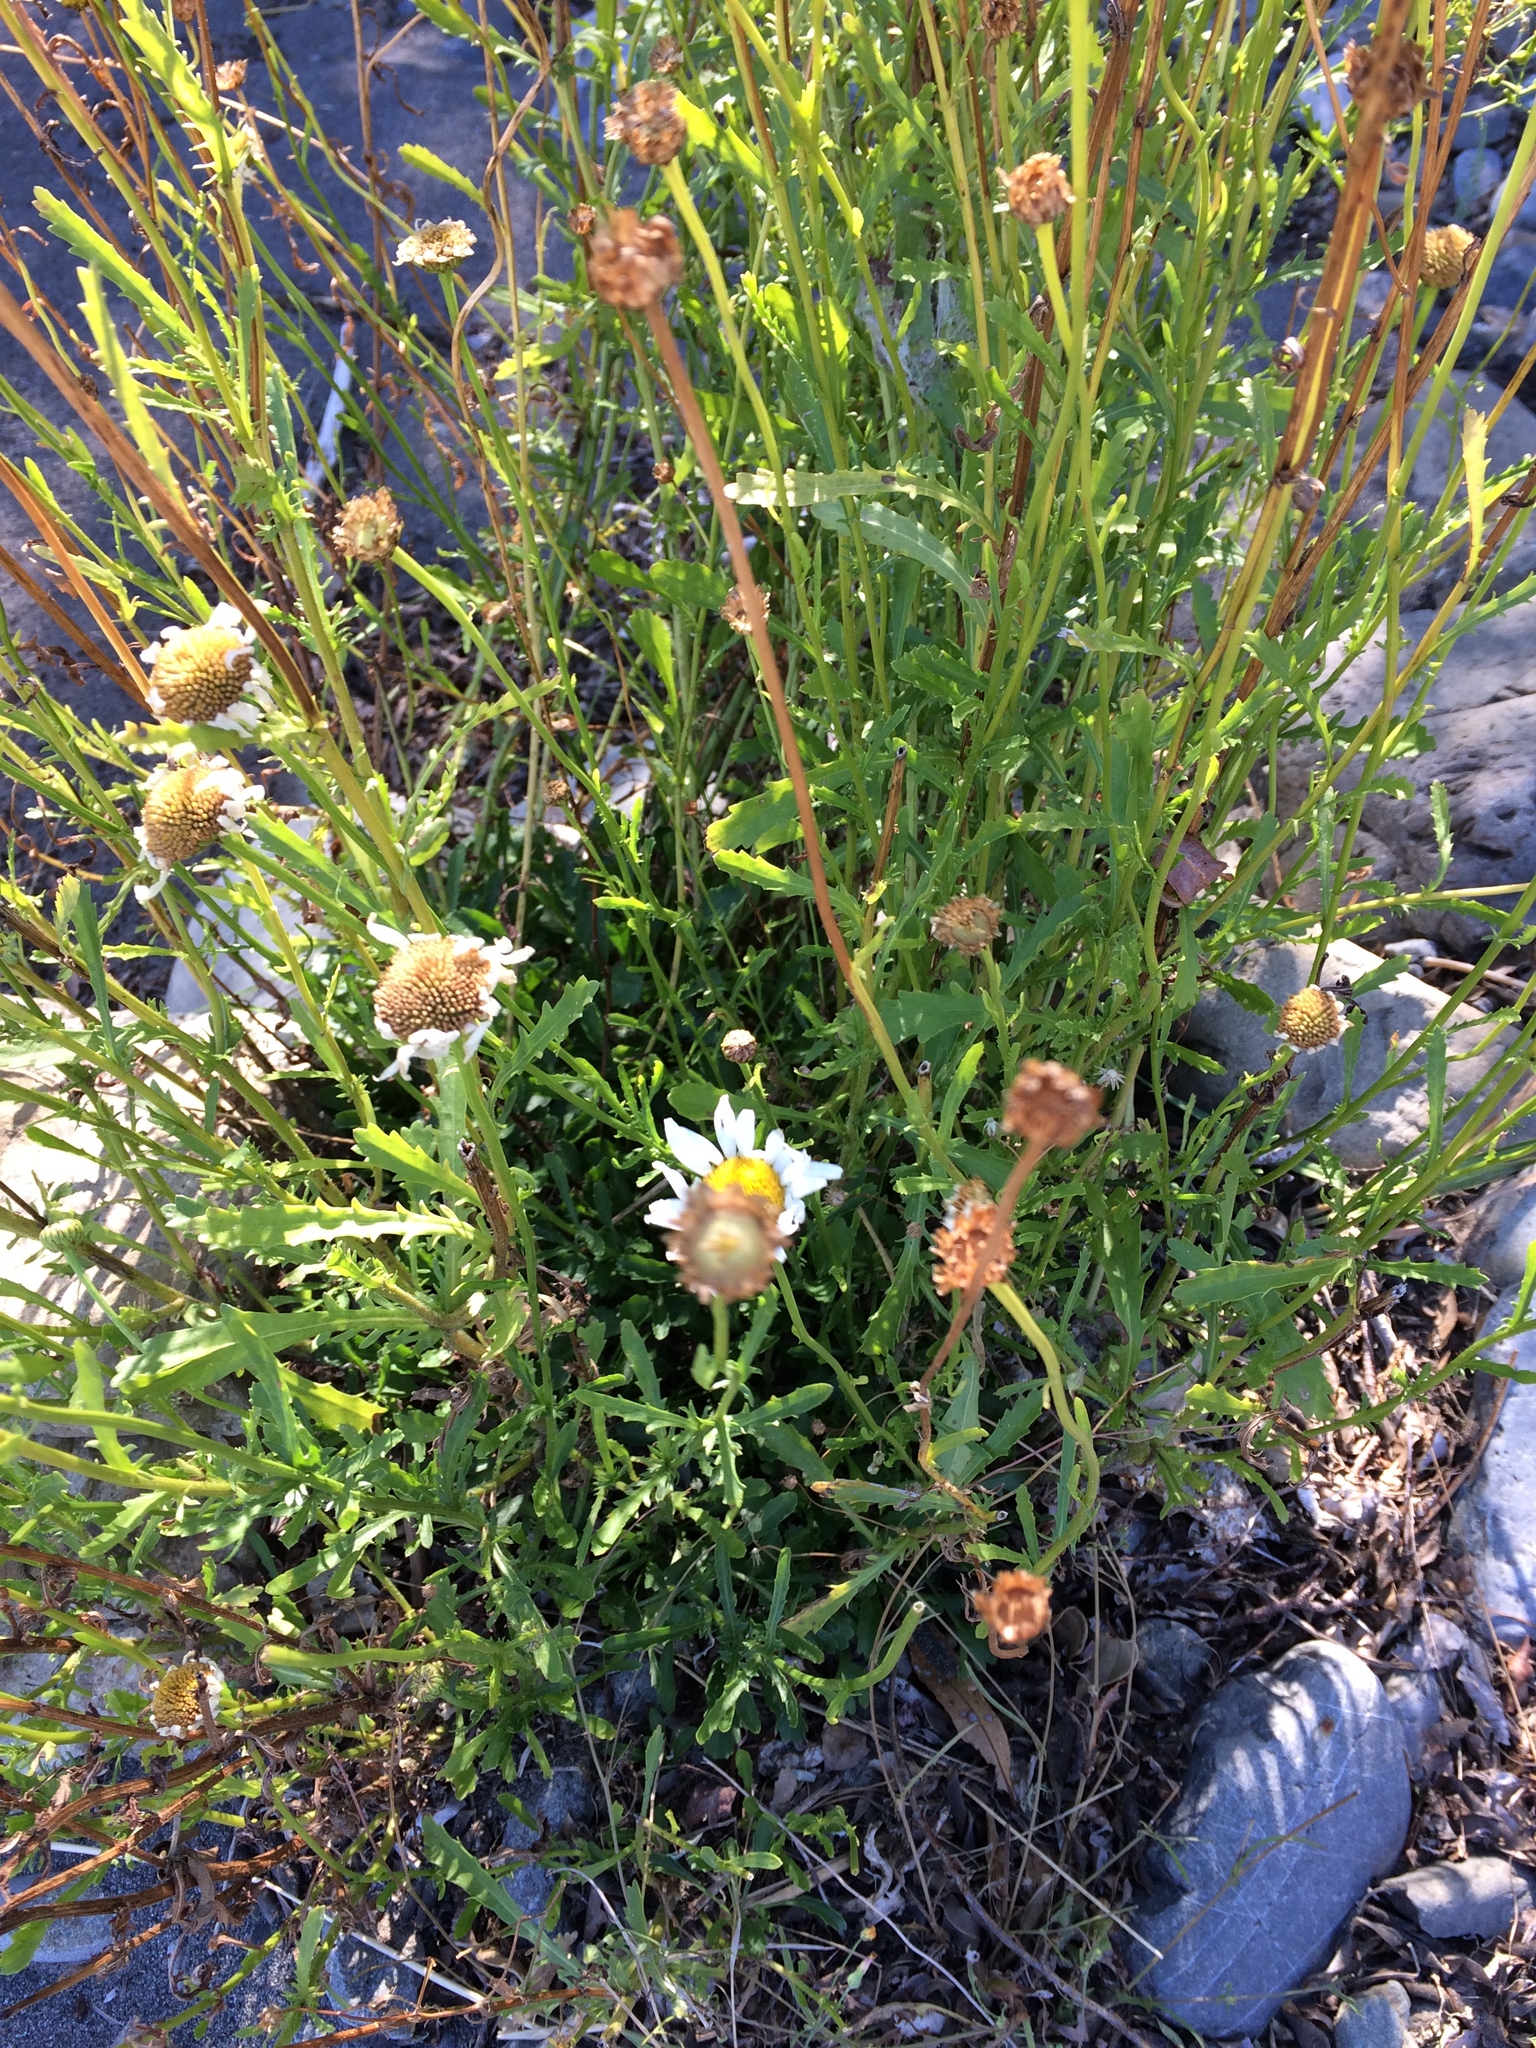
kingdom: Plantae
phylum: Tracheophyta
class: Magnoliopsida
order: Asterales
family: Asteraceae
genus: Leucanthemum
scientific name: Leucanthemum vulgare
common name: Oxeye daisy
